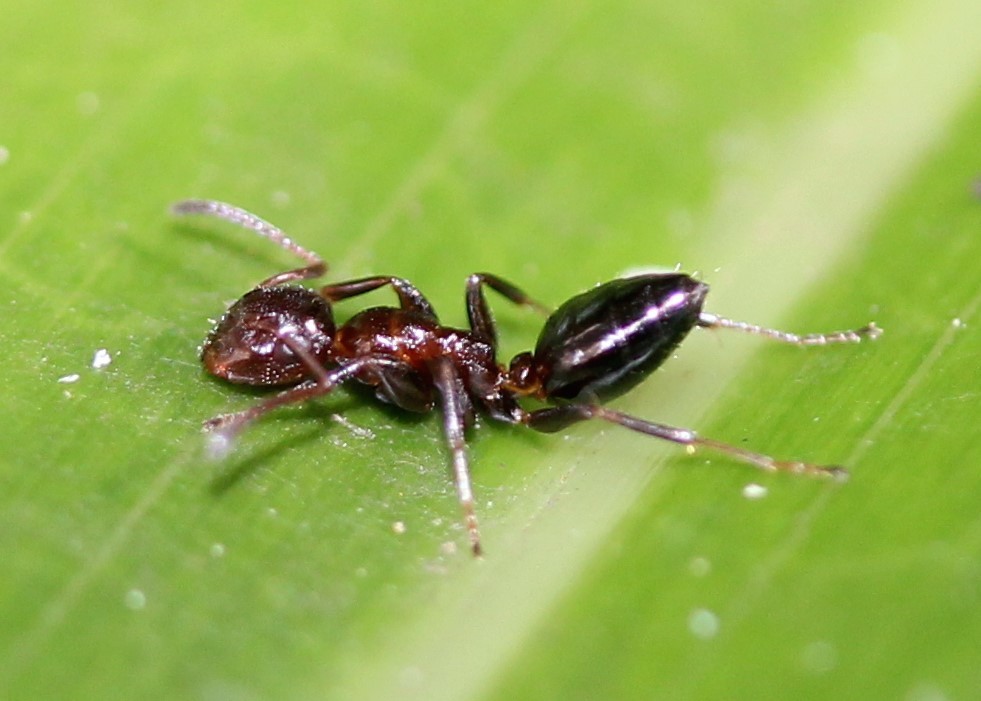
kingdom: Animalia
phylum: Arthropoda
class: Insecta
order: Hymenoptera
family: Formicidae
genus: Colobopsis
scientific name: Colobopsis impressa
